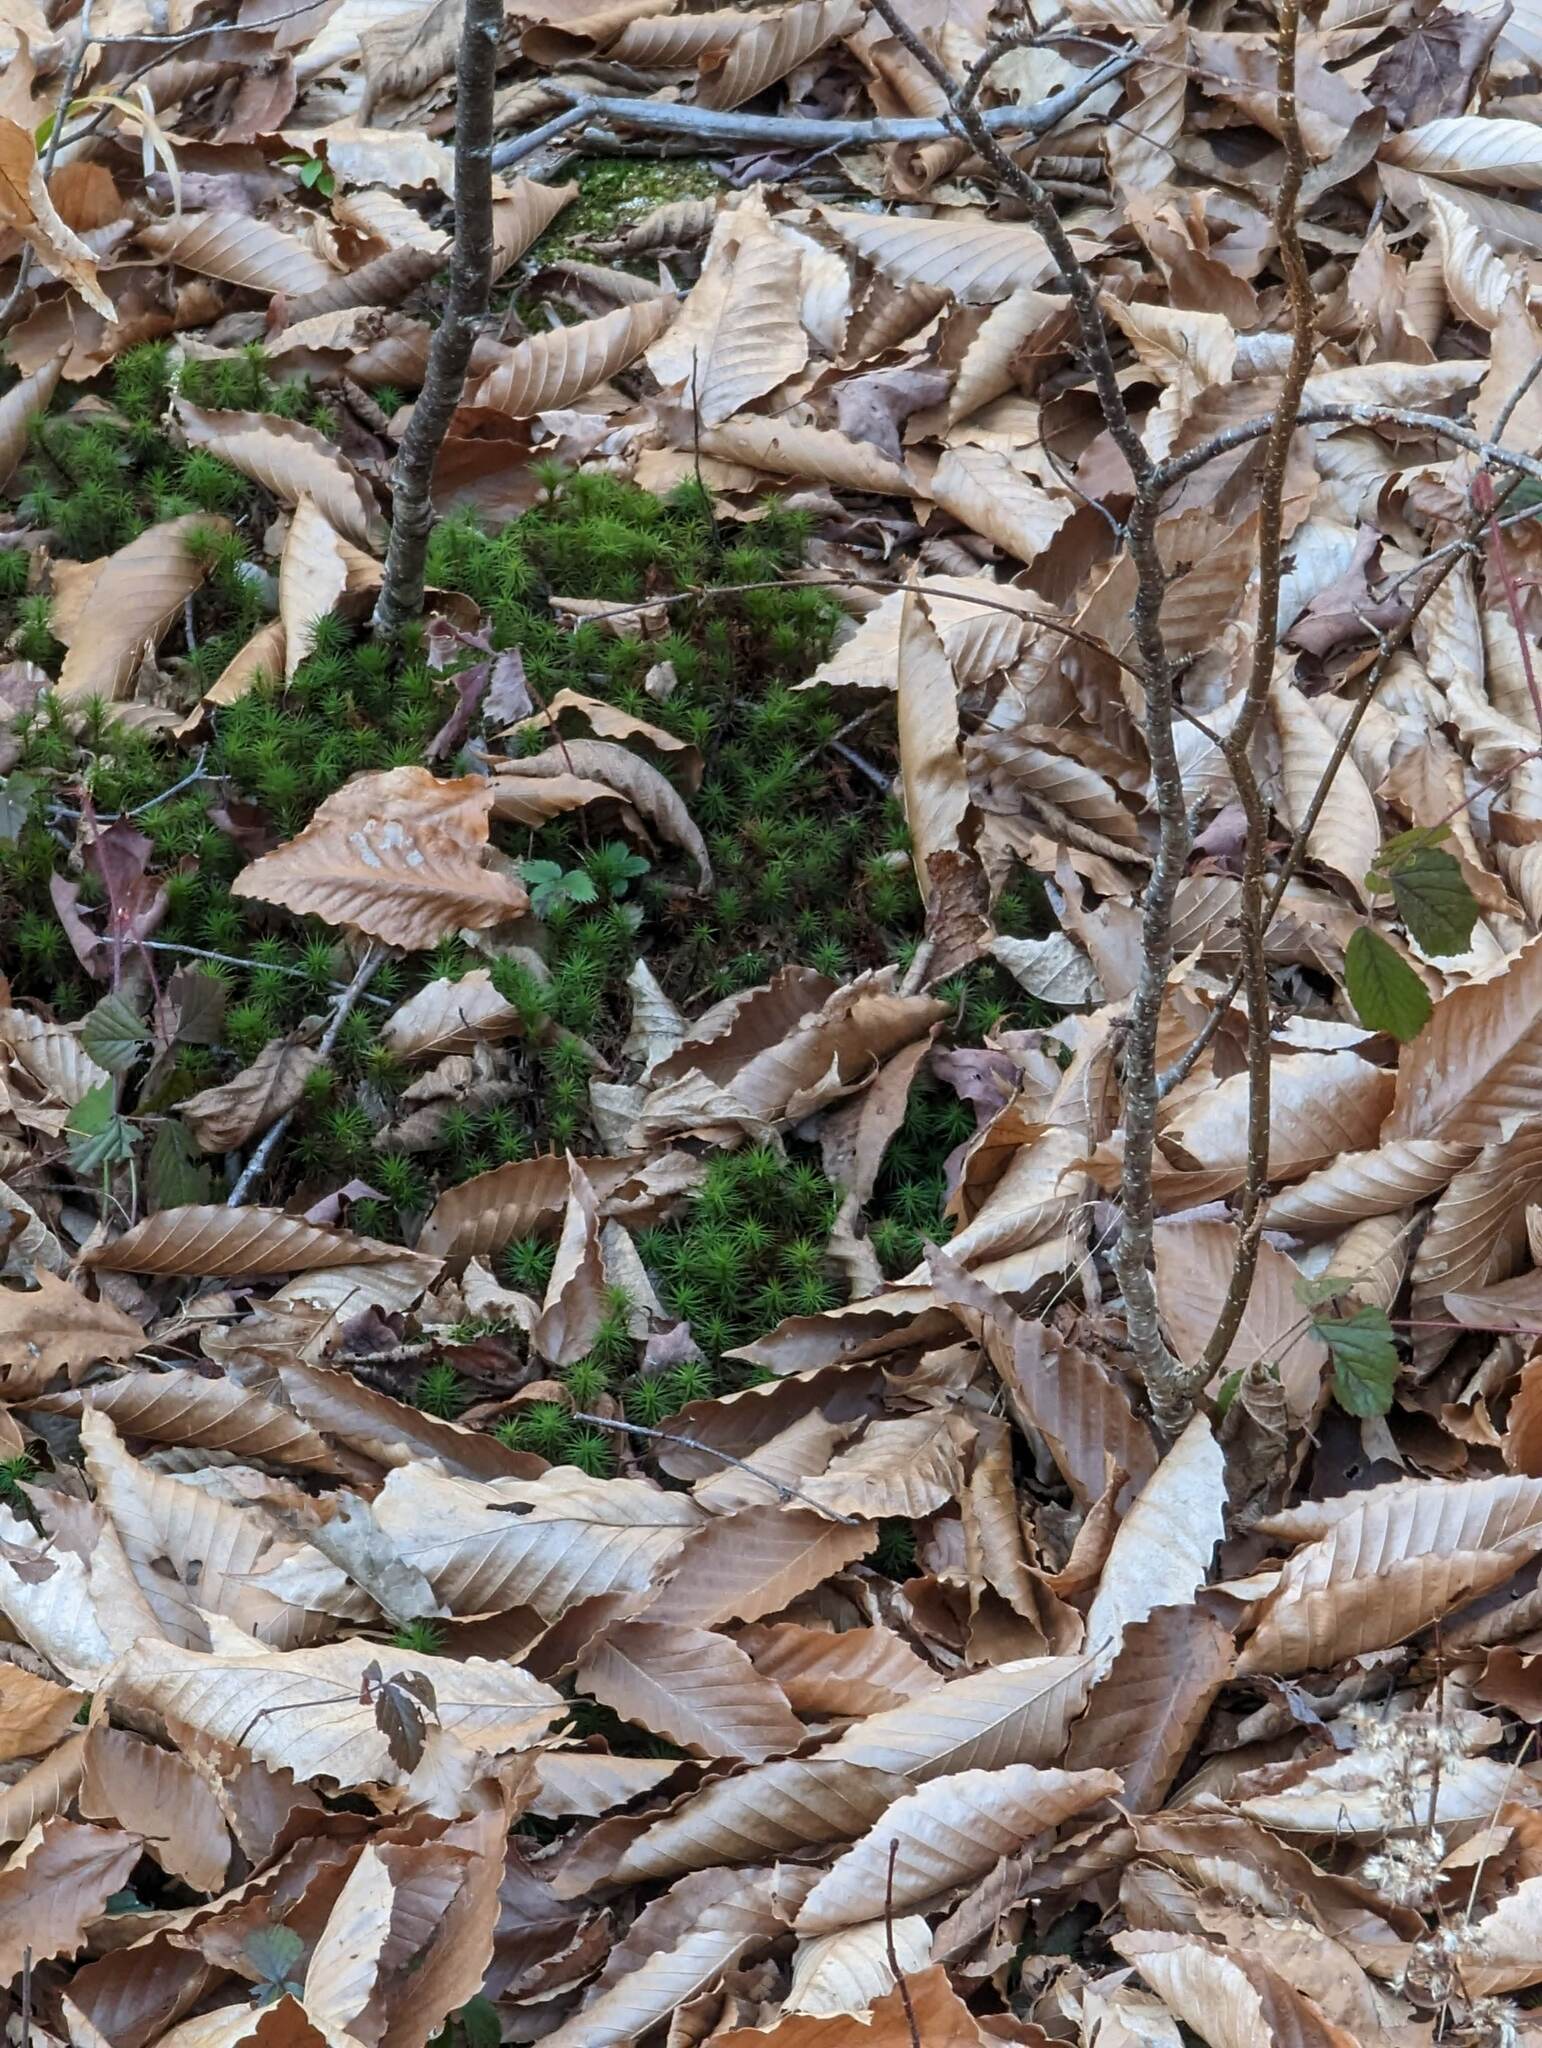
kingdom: Plantae
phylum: Tracheophyta
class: Magnoliopsida
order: Fagales
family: Fagaceae
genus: Fagus
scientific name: Fagus grandifolia
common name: American beech
